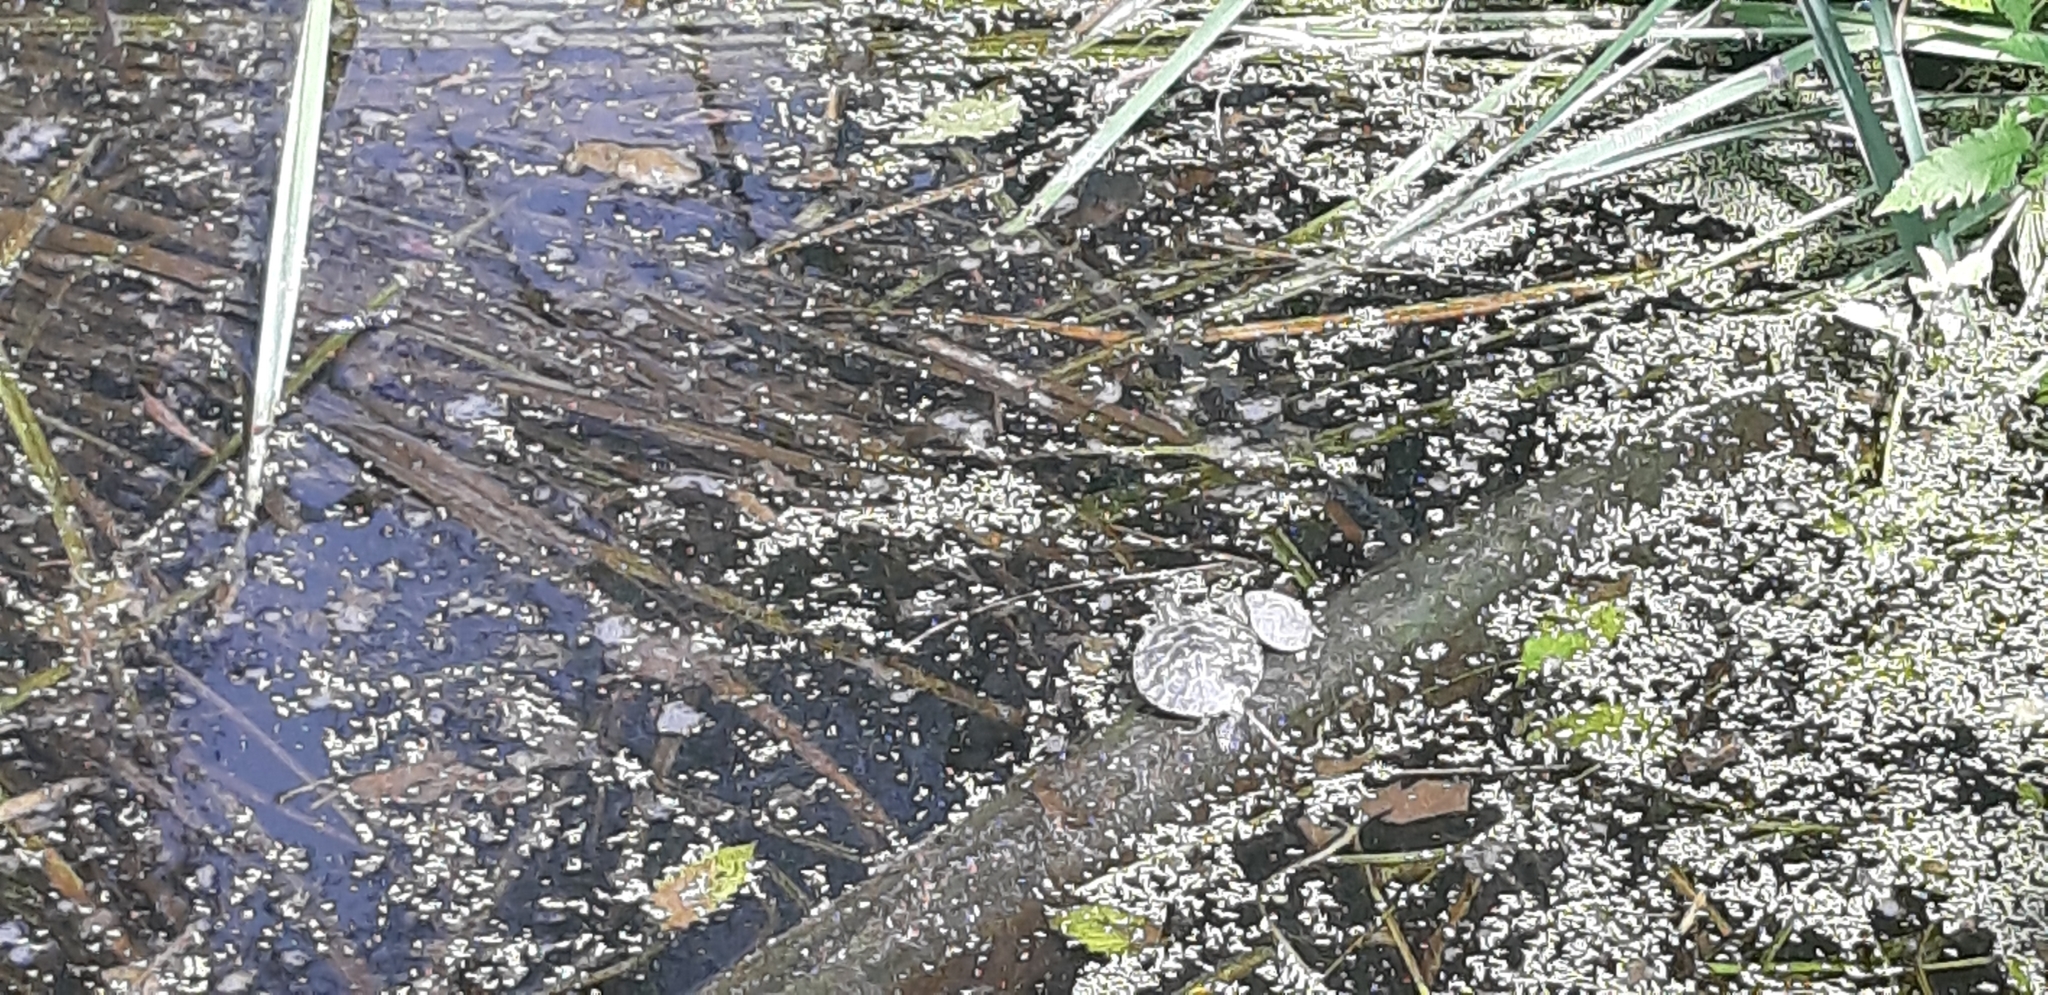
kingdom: Animalia
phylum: Chordata
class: Testudines
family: Emydidae
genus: Trachemys
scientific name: Trachemys scripta
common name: Slider
